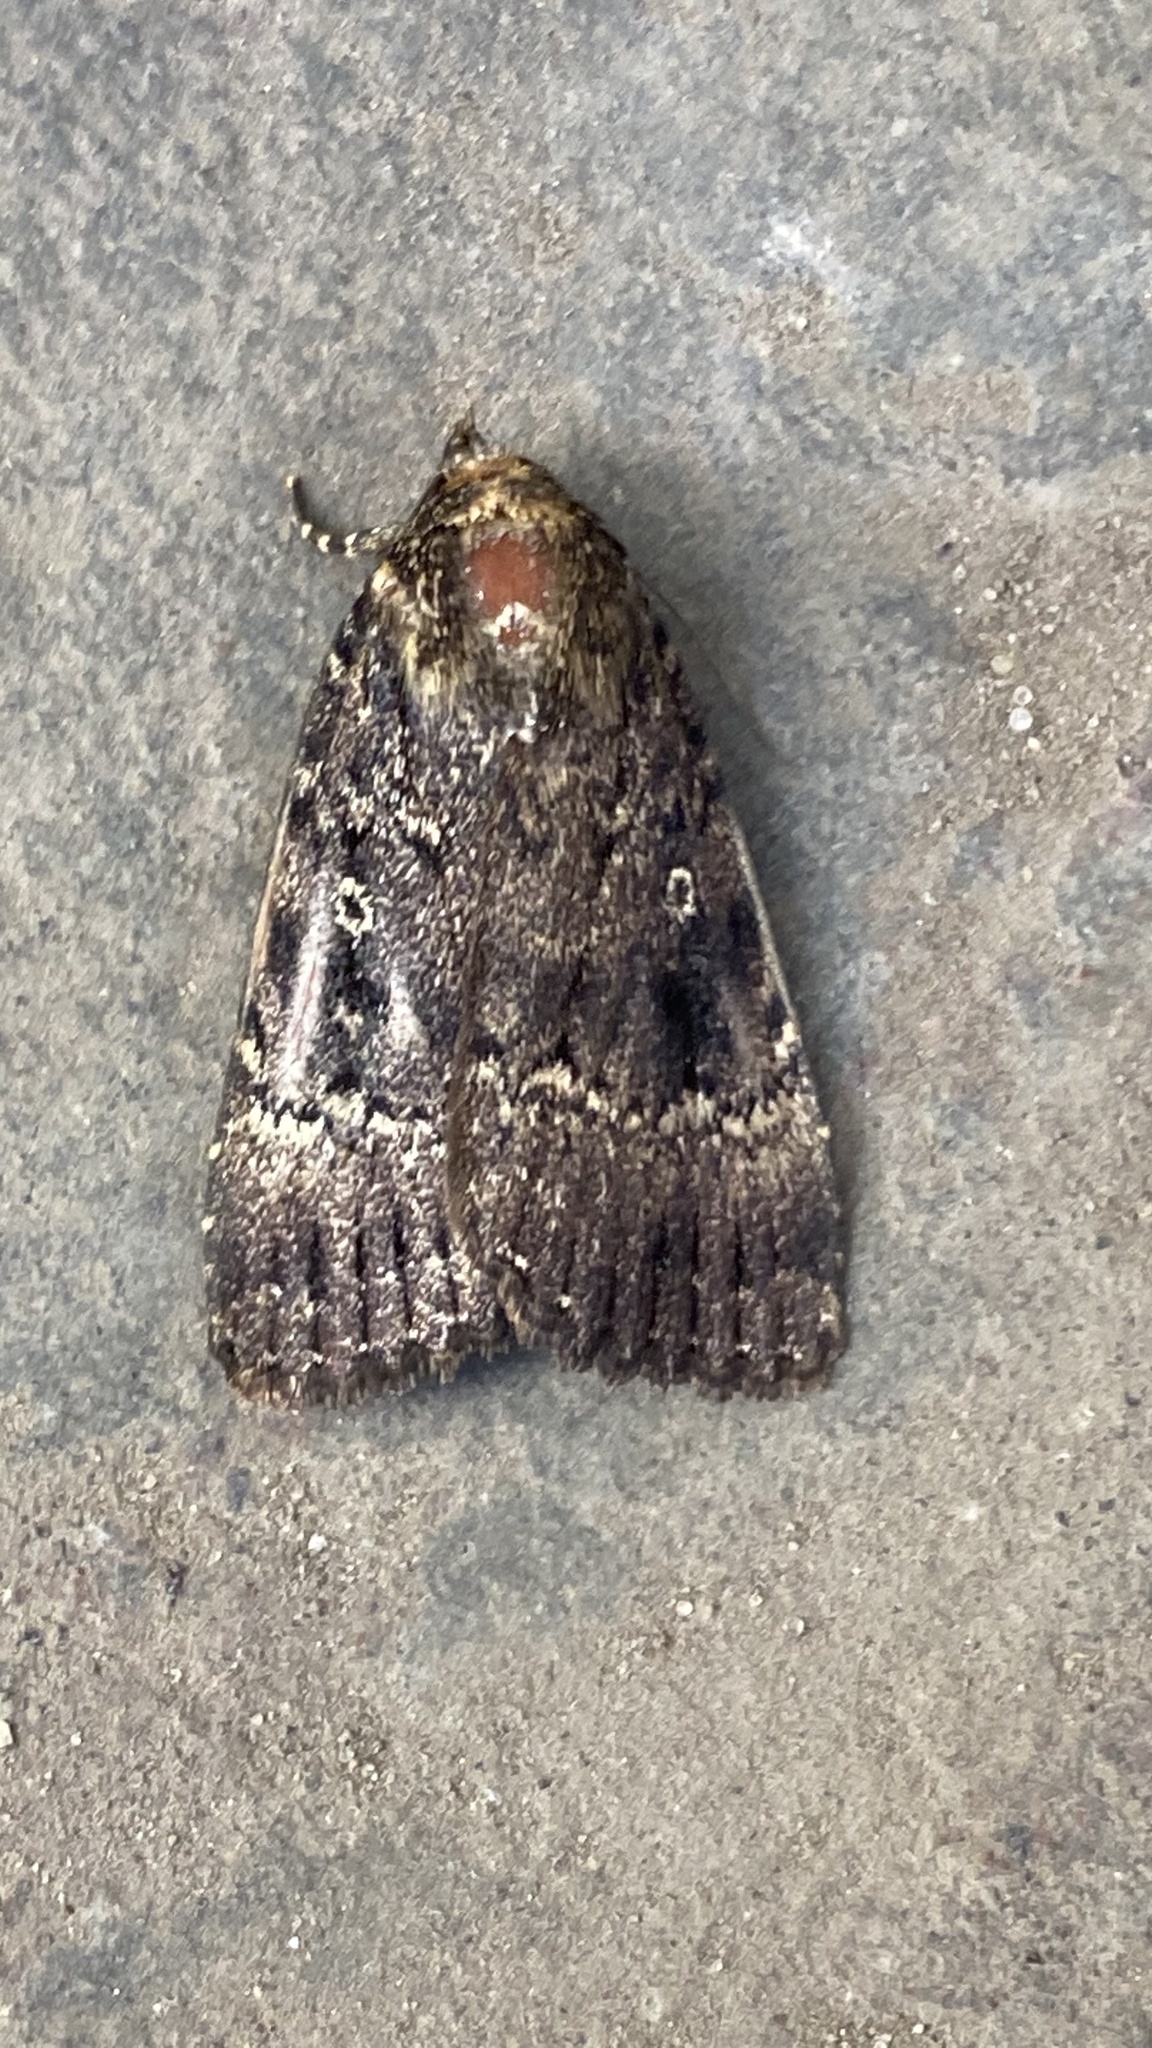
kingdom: Animalia
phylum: Arthropoda
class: Insecta
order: Lepidoptera
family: Noctuidae
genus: Amphipyra
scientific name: Amphipyra pyramidea
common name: Copper underwing
